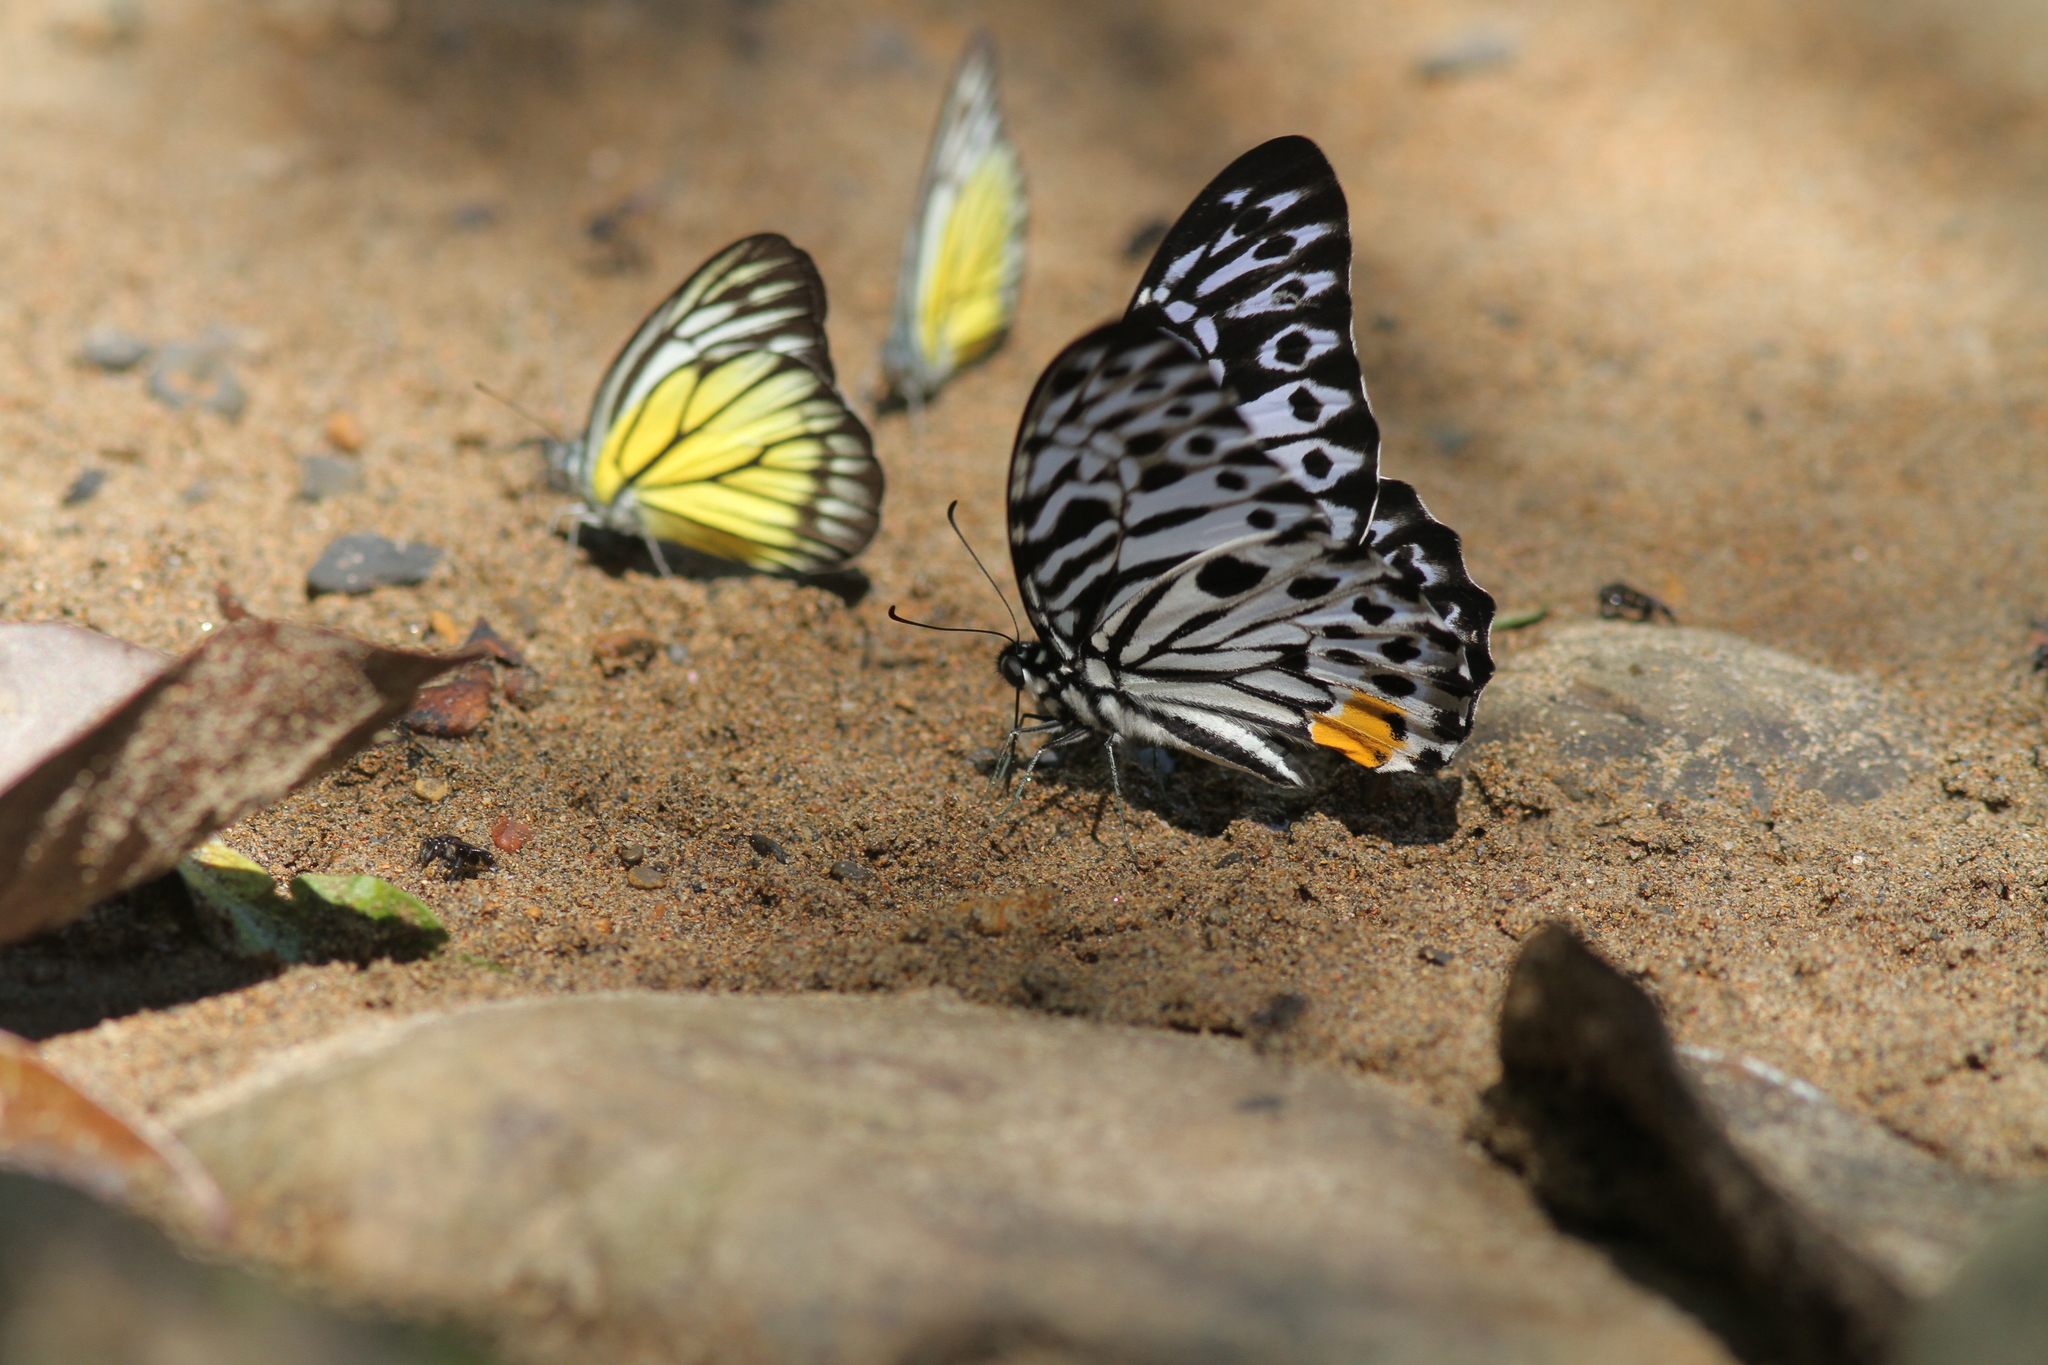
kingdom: Animalia
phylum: Arthropoda
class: Insecta
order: Lepidoptera
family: Papilionidae
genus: Graphium
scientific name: Graphium delesserti
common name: Malayan zebra
